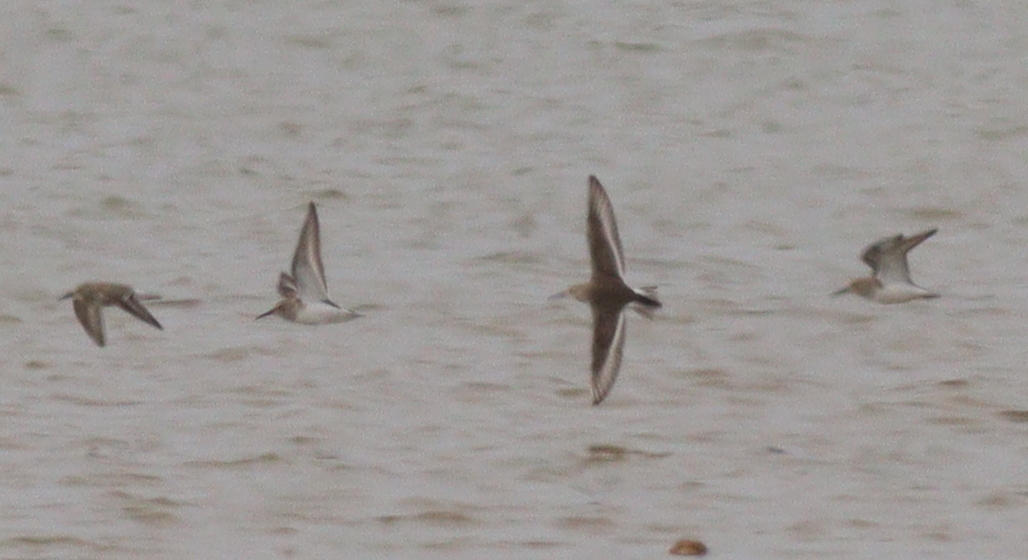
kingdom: Animalia
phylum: Chordata
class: Aves
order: Charadriiformes
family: Scolopacidae
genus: Calidris
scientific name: Calidris alpina
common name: Dunlin
